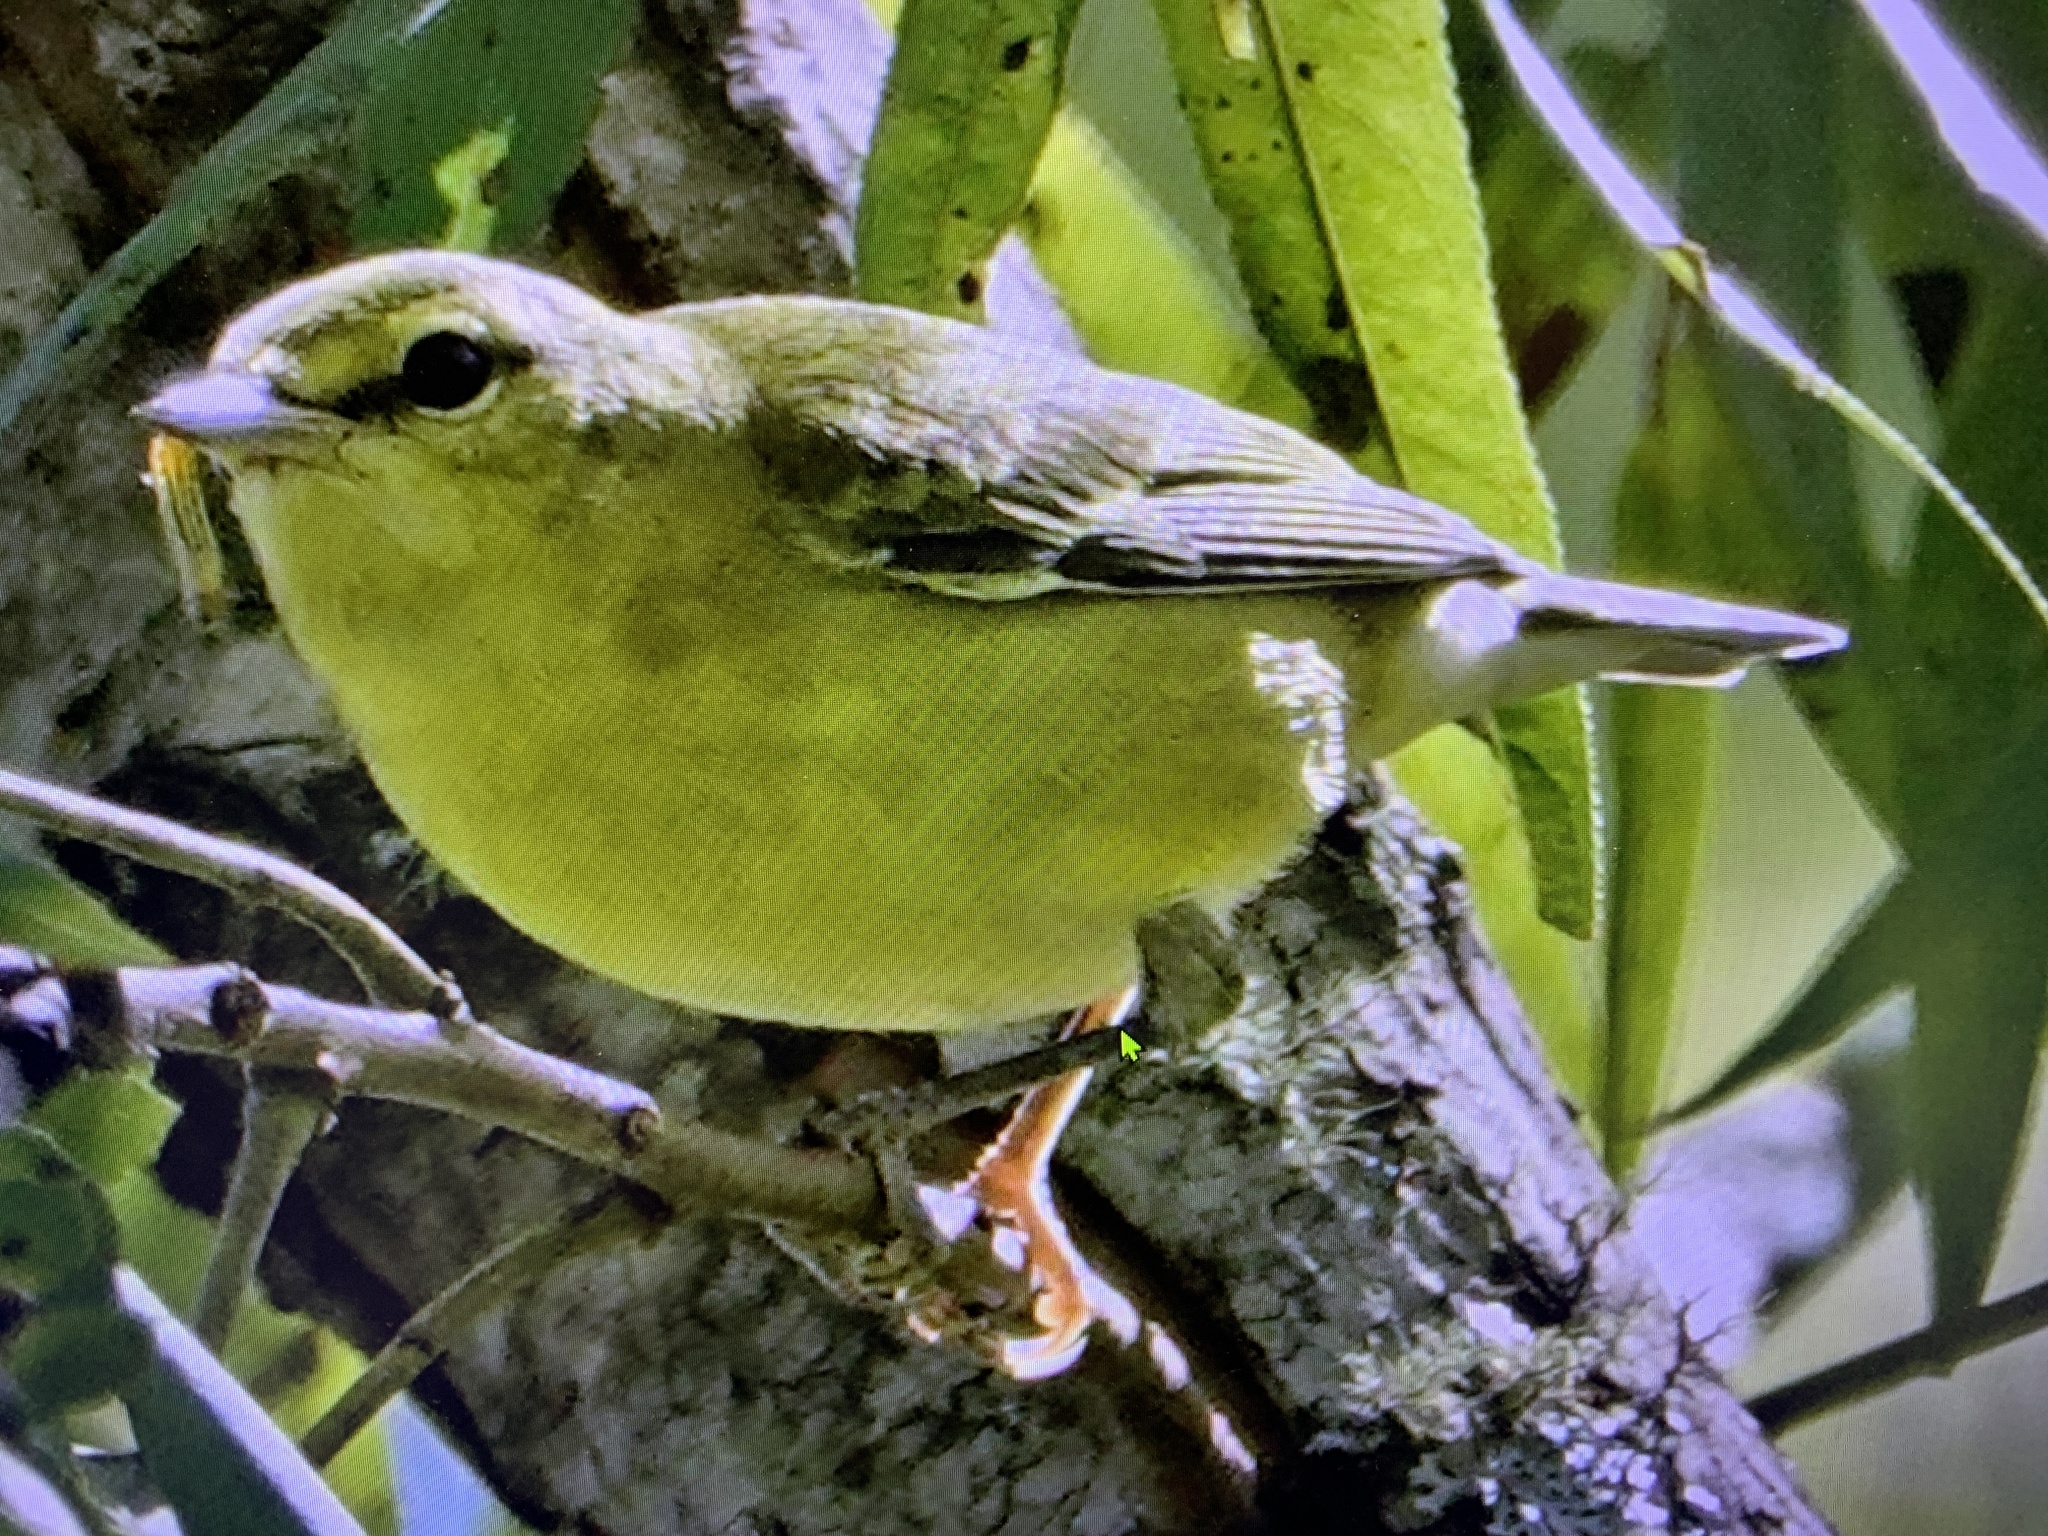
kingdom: Animalia
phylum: Chordata
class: Aves
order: Passeriformes
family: Parulidae
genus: Leiothlypis
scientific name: Leiothlypis peregrina
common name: Tennessee warbler
